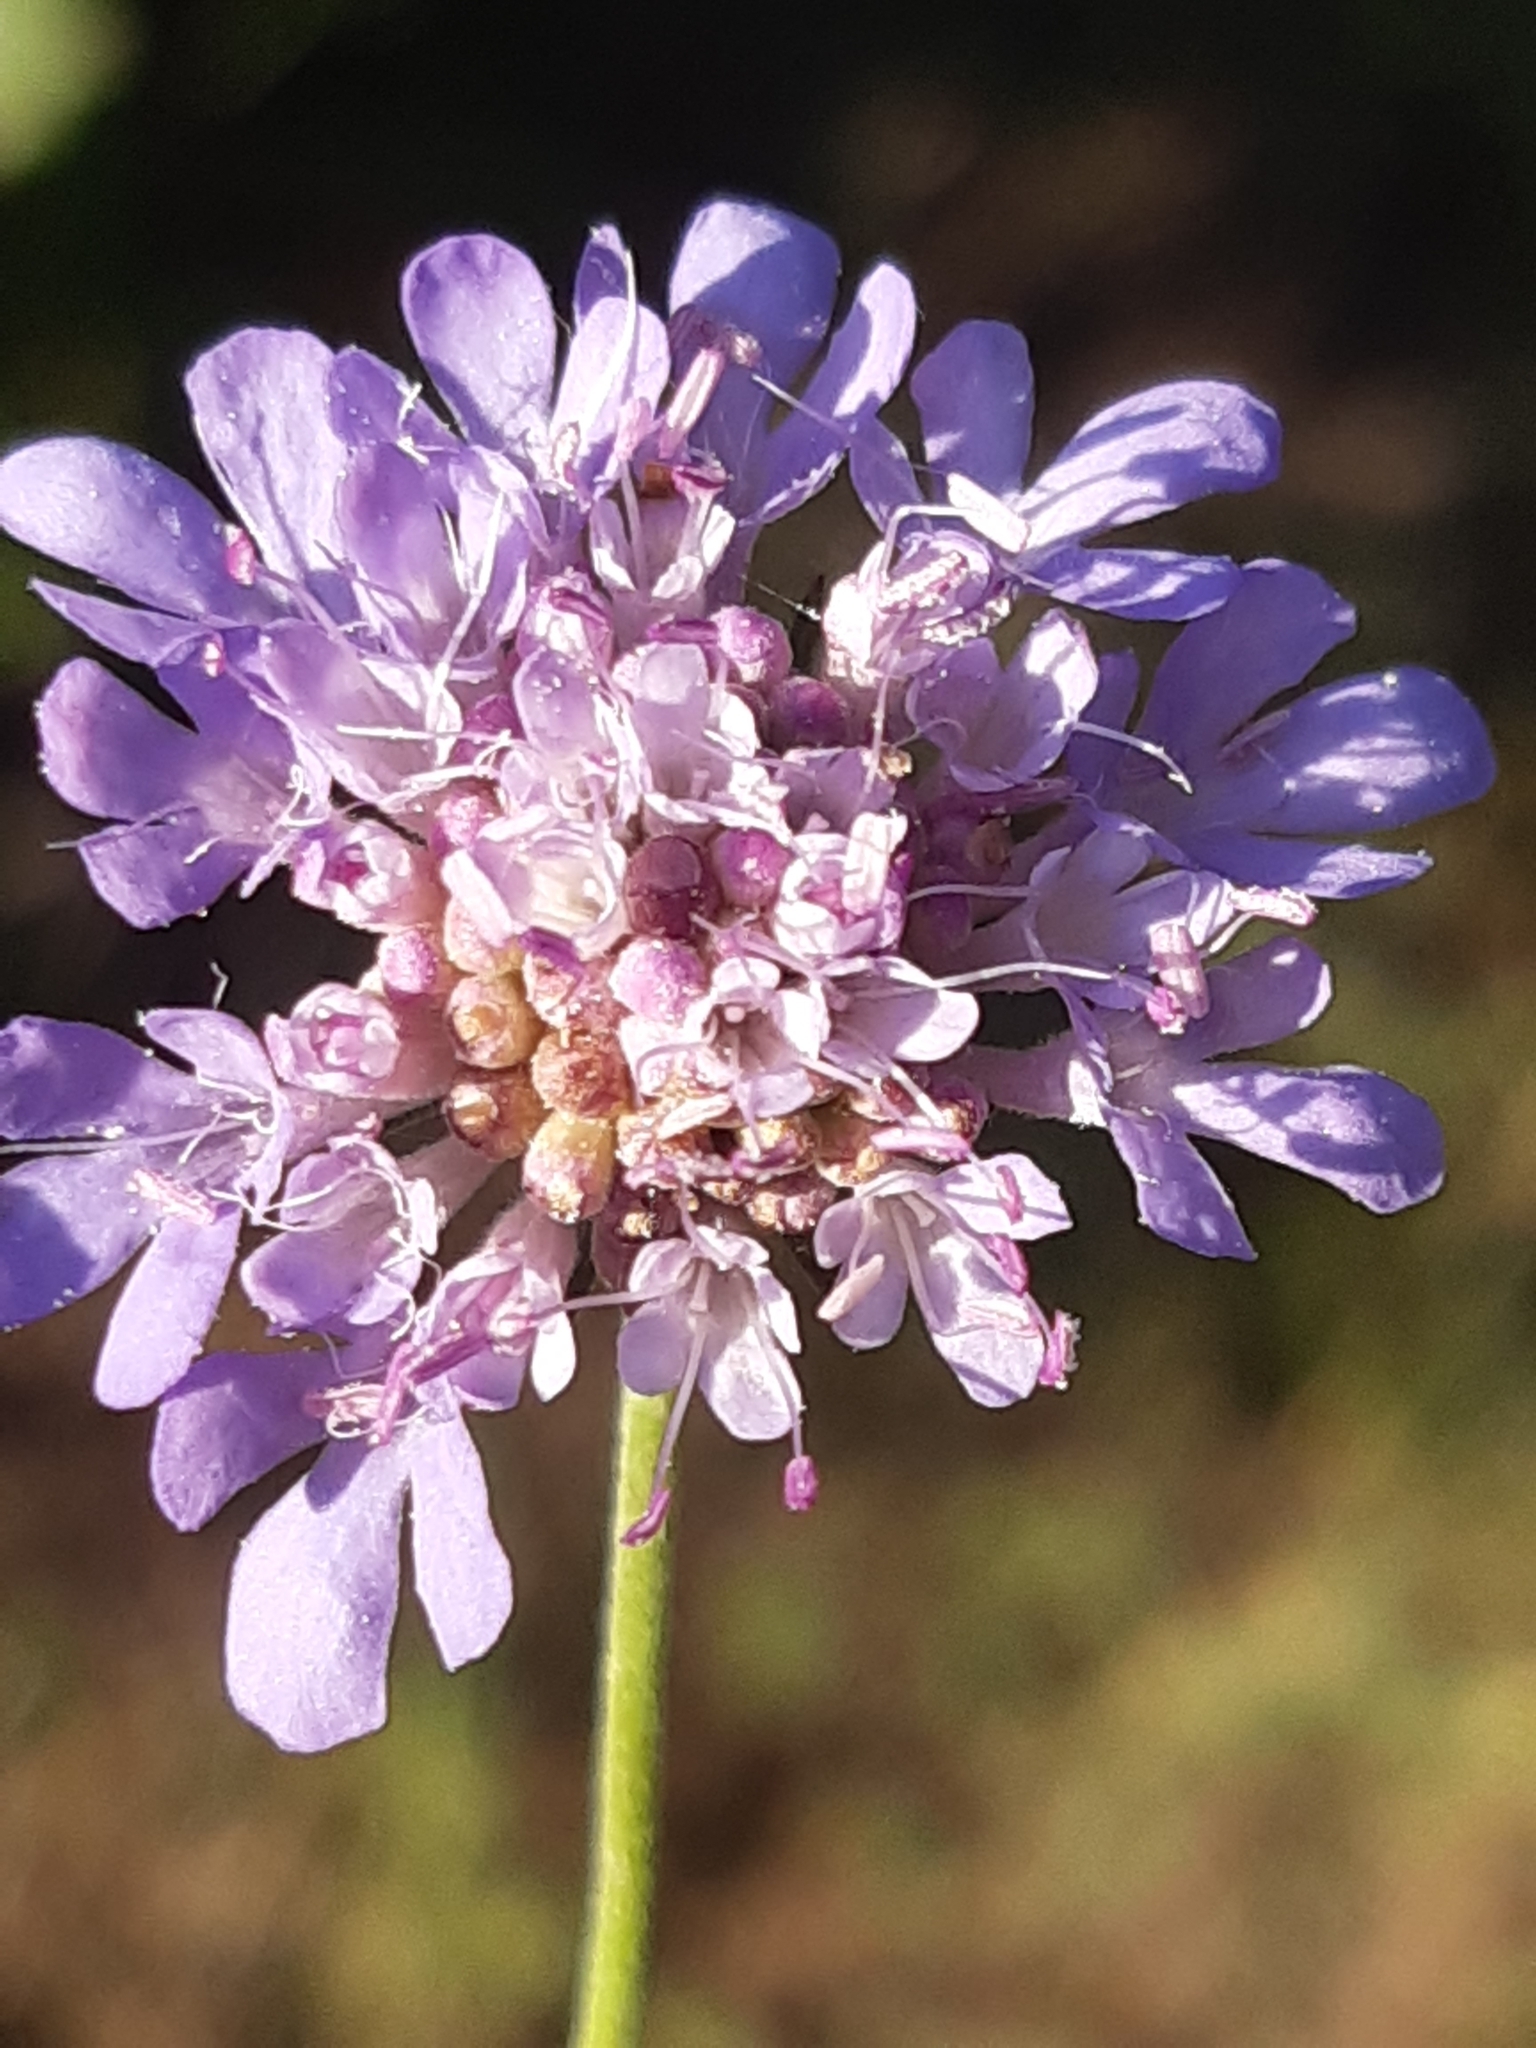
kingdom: Plantae
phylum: Tracheophyta
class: Magnoliopsida
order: Dipsacales
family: Caprifoliaceae
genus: Scabiosa
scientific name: Scabiosa triandra
